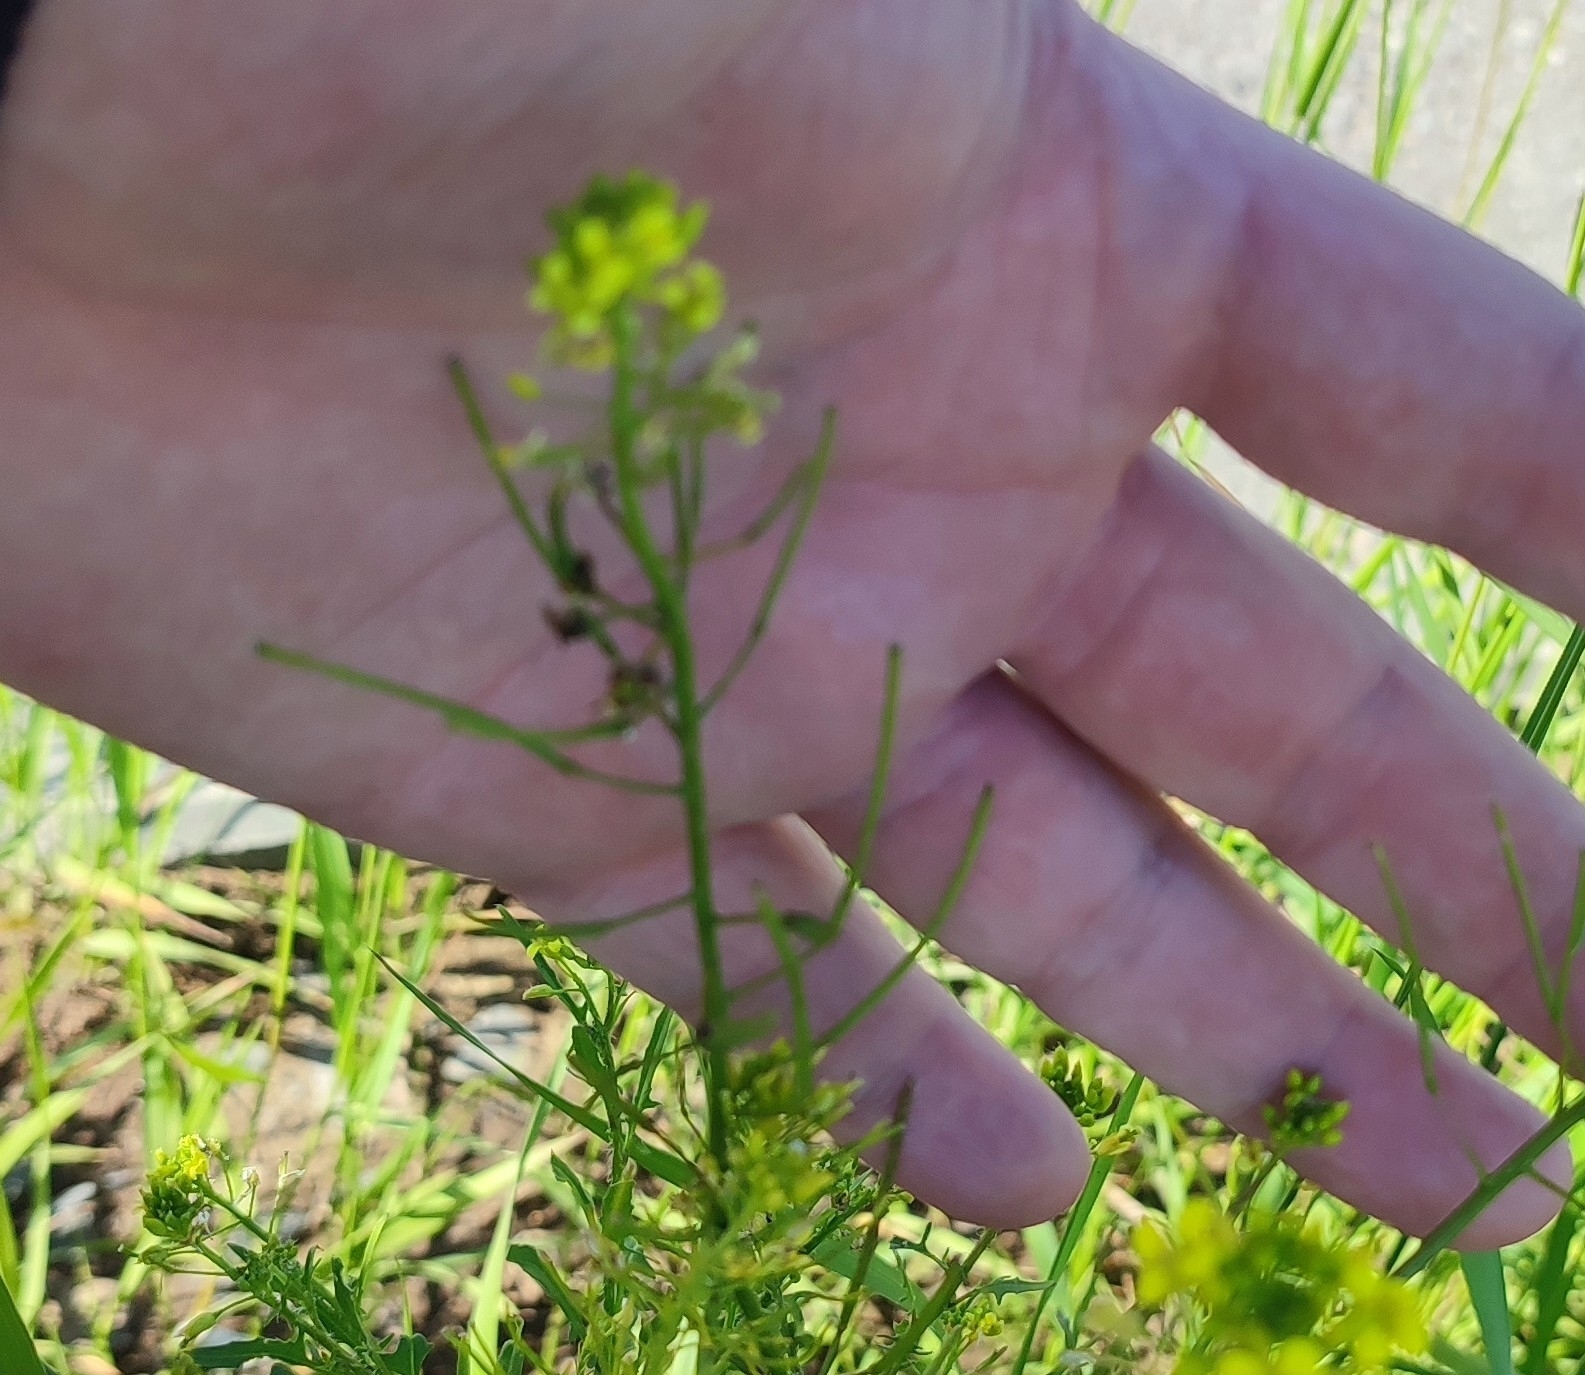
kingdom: Plantae
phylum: Tracheophyta
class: Magnoliopsida
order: Brassicales
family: Brassicaceae
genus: Sisymbrium
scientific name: Sisymbrium loeselii
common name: False london-rocket
